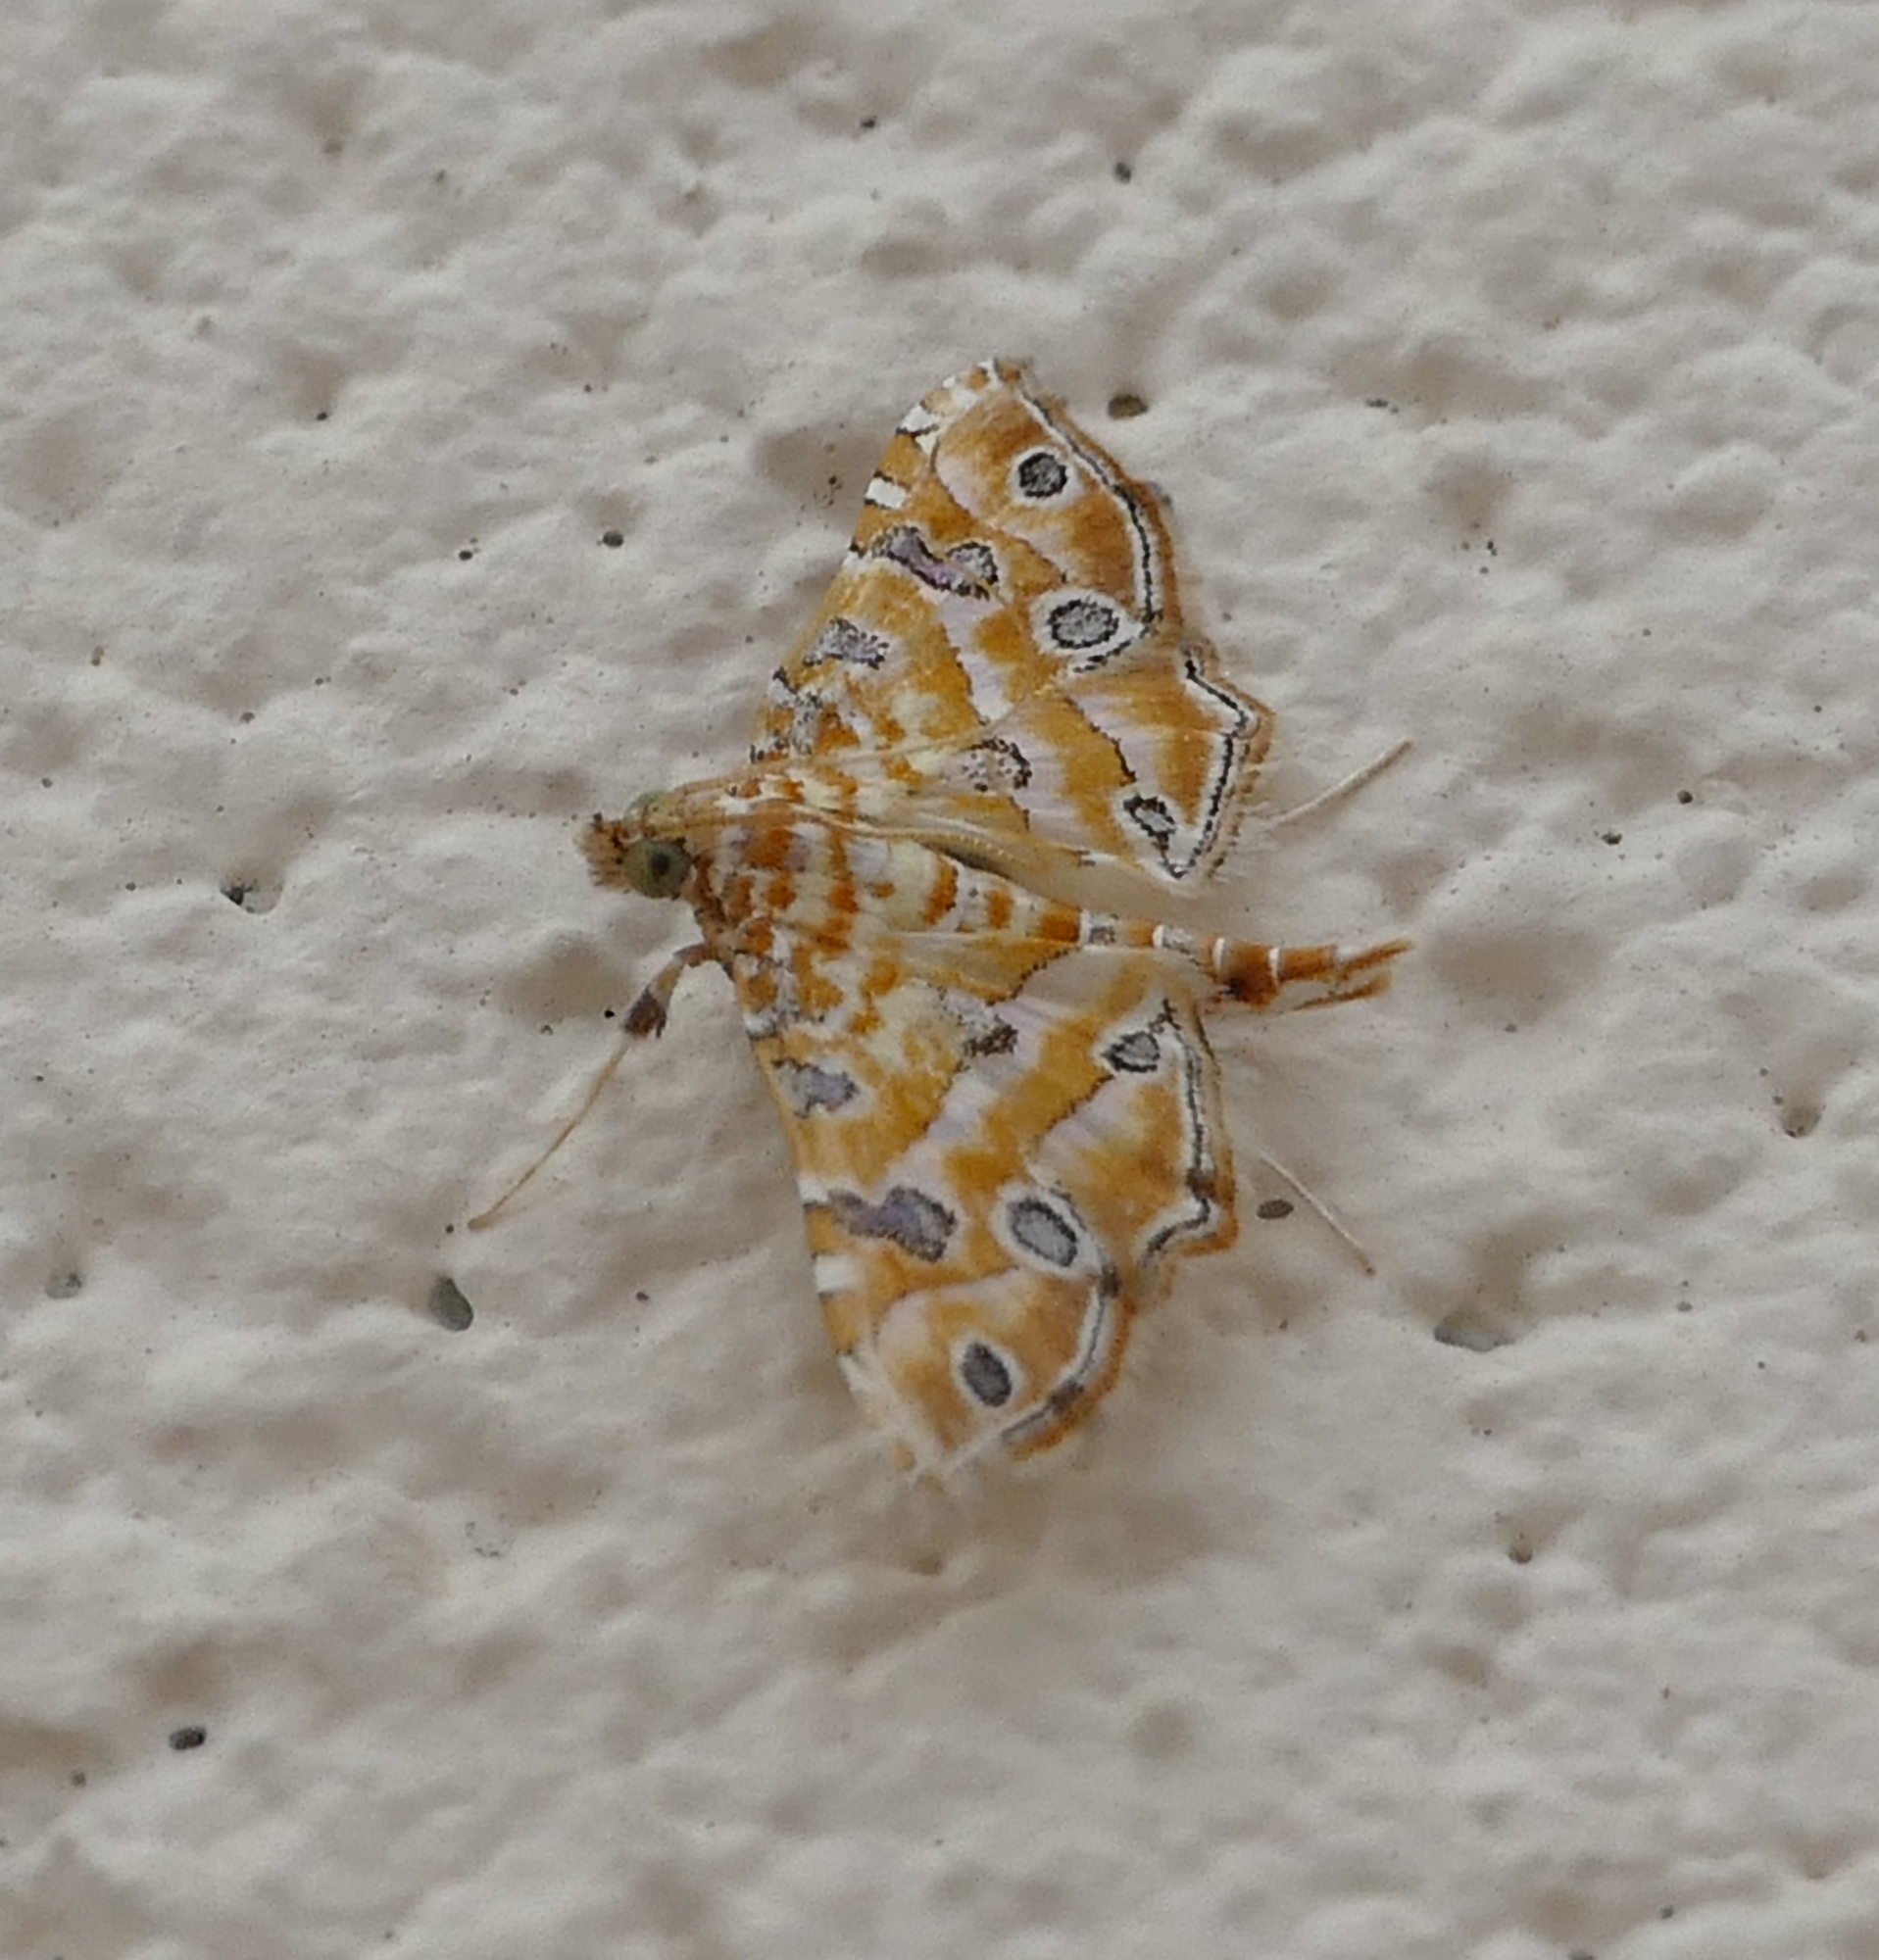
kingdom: Animalia
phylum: Arthropoda
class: Insecta
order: Lepidoptera
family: Crambidae
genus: Ommatospila
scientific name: Ommatospila narcaeusalis
